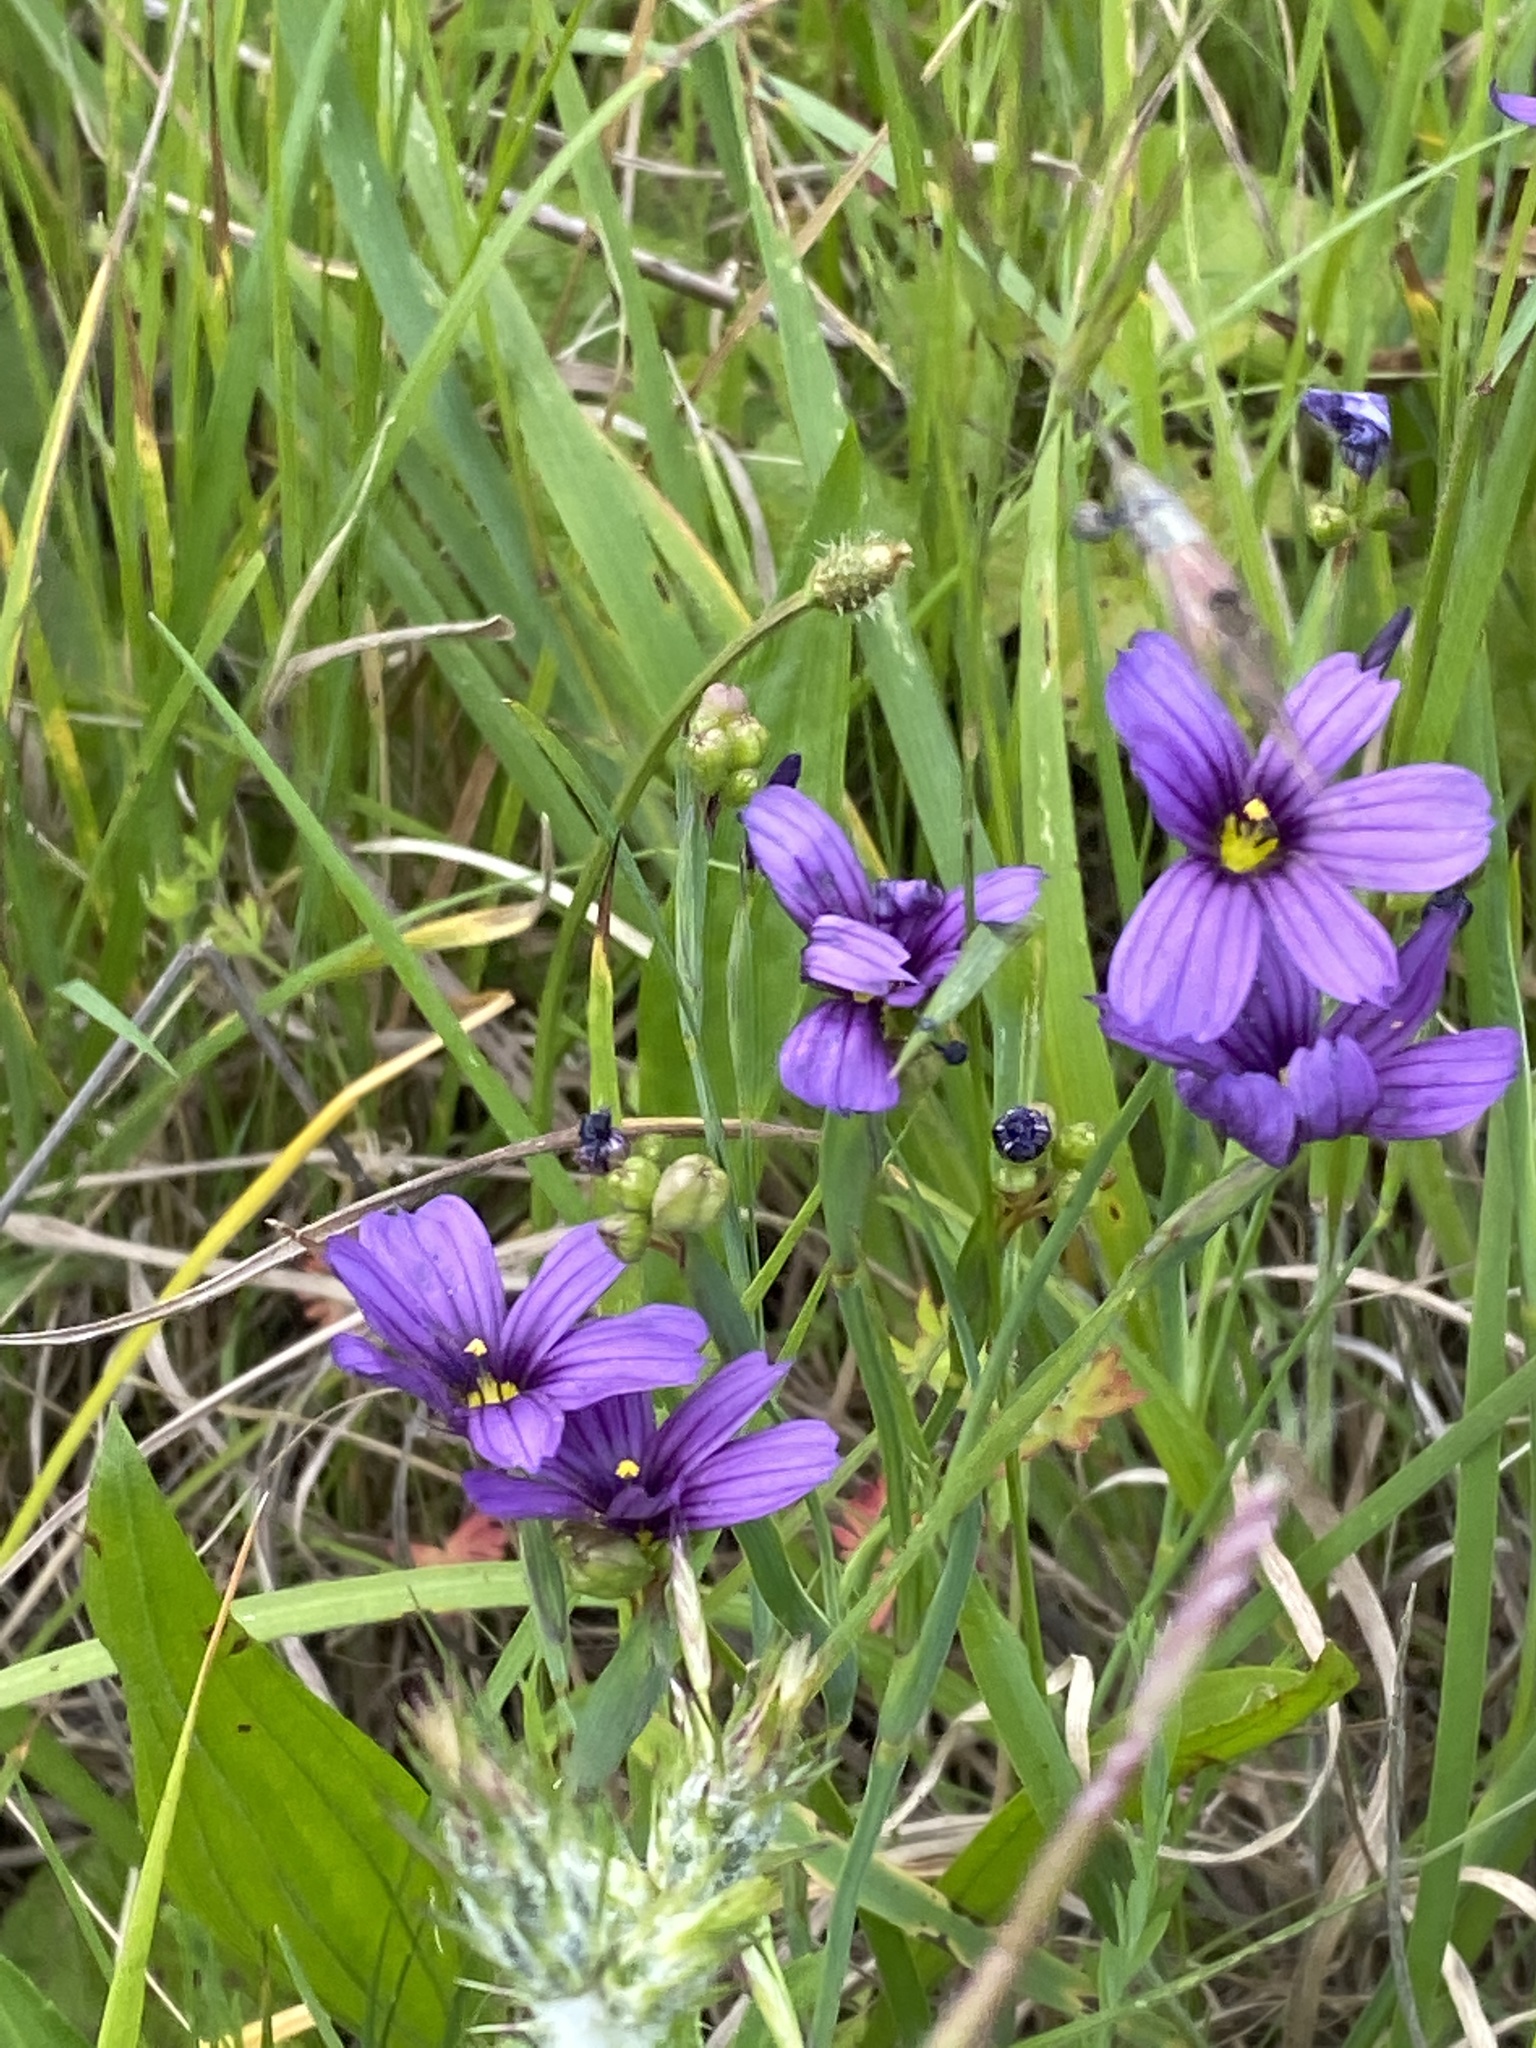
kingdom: Plantae
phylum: Tracheophyta
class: Liliopsida
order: Asparagales
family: Iridaceae
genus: Sisyrinchium
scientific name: Sisyrinchium bellum
